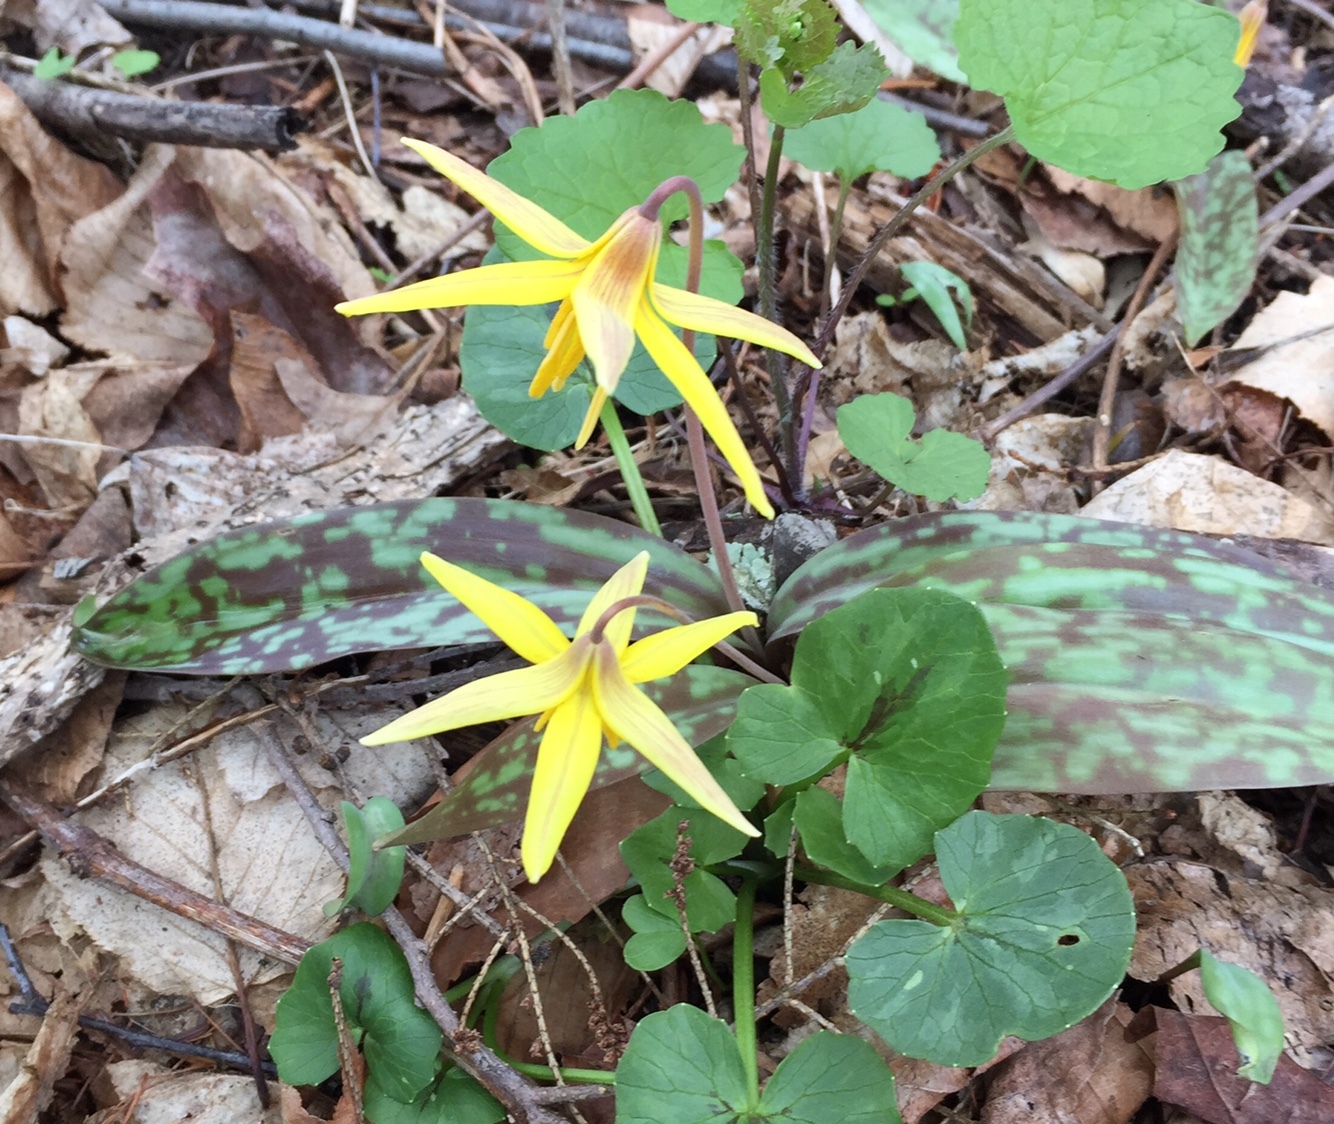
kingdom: Plantae
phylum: Tracheophyta
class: Liliopsida
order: Liliales
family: Liliaceae
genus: Erythronium
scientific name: Erythronium americanum
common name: Yellow adder's-tongue
